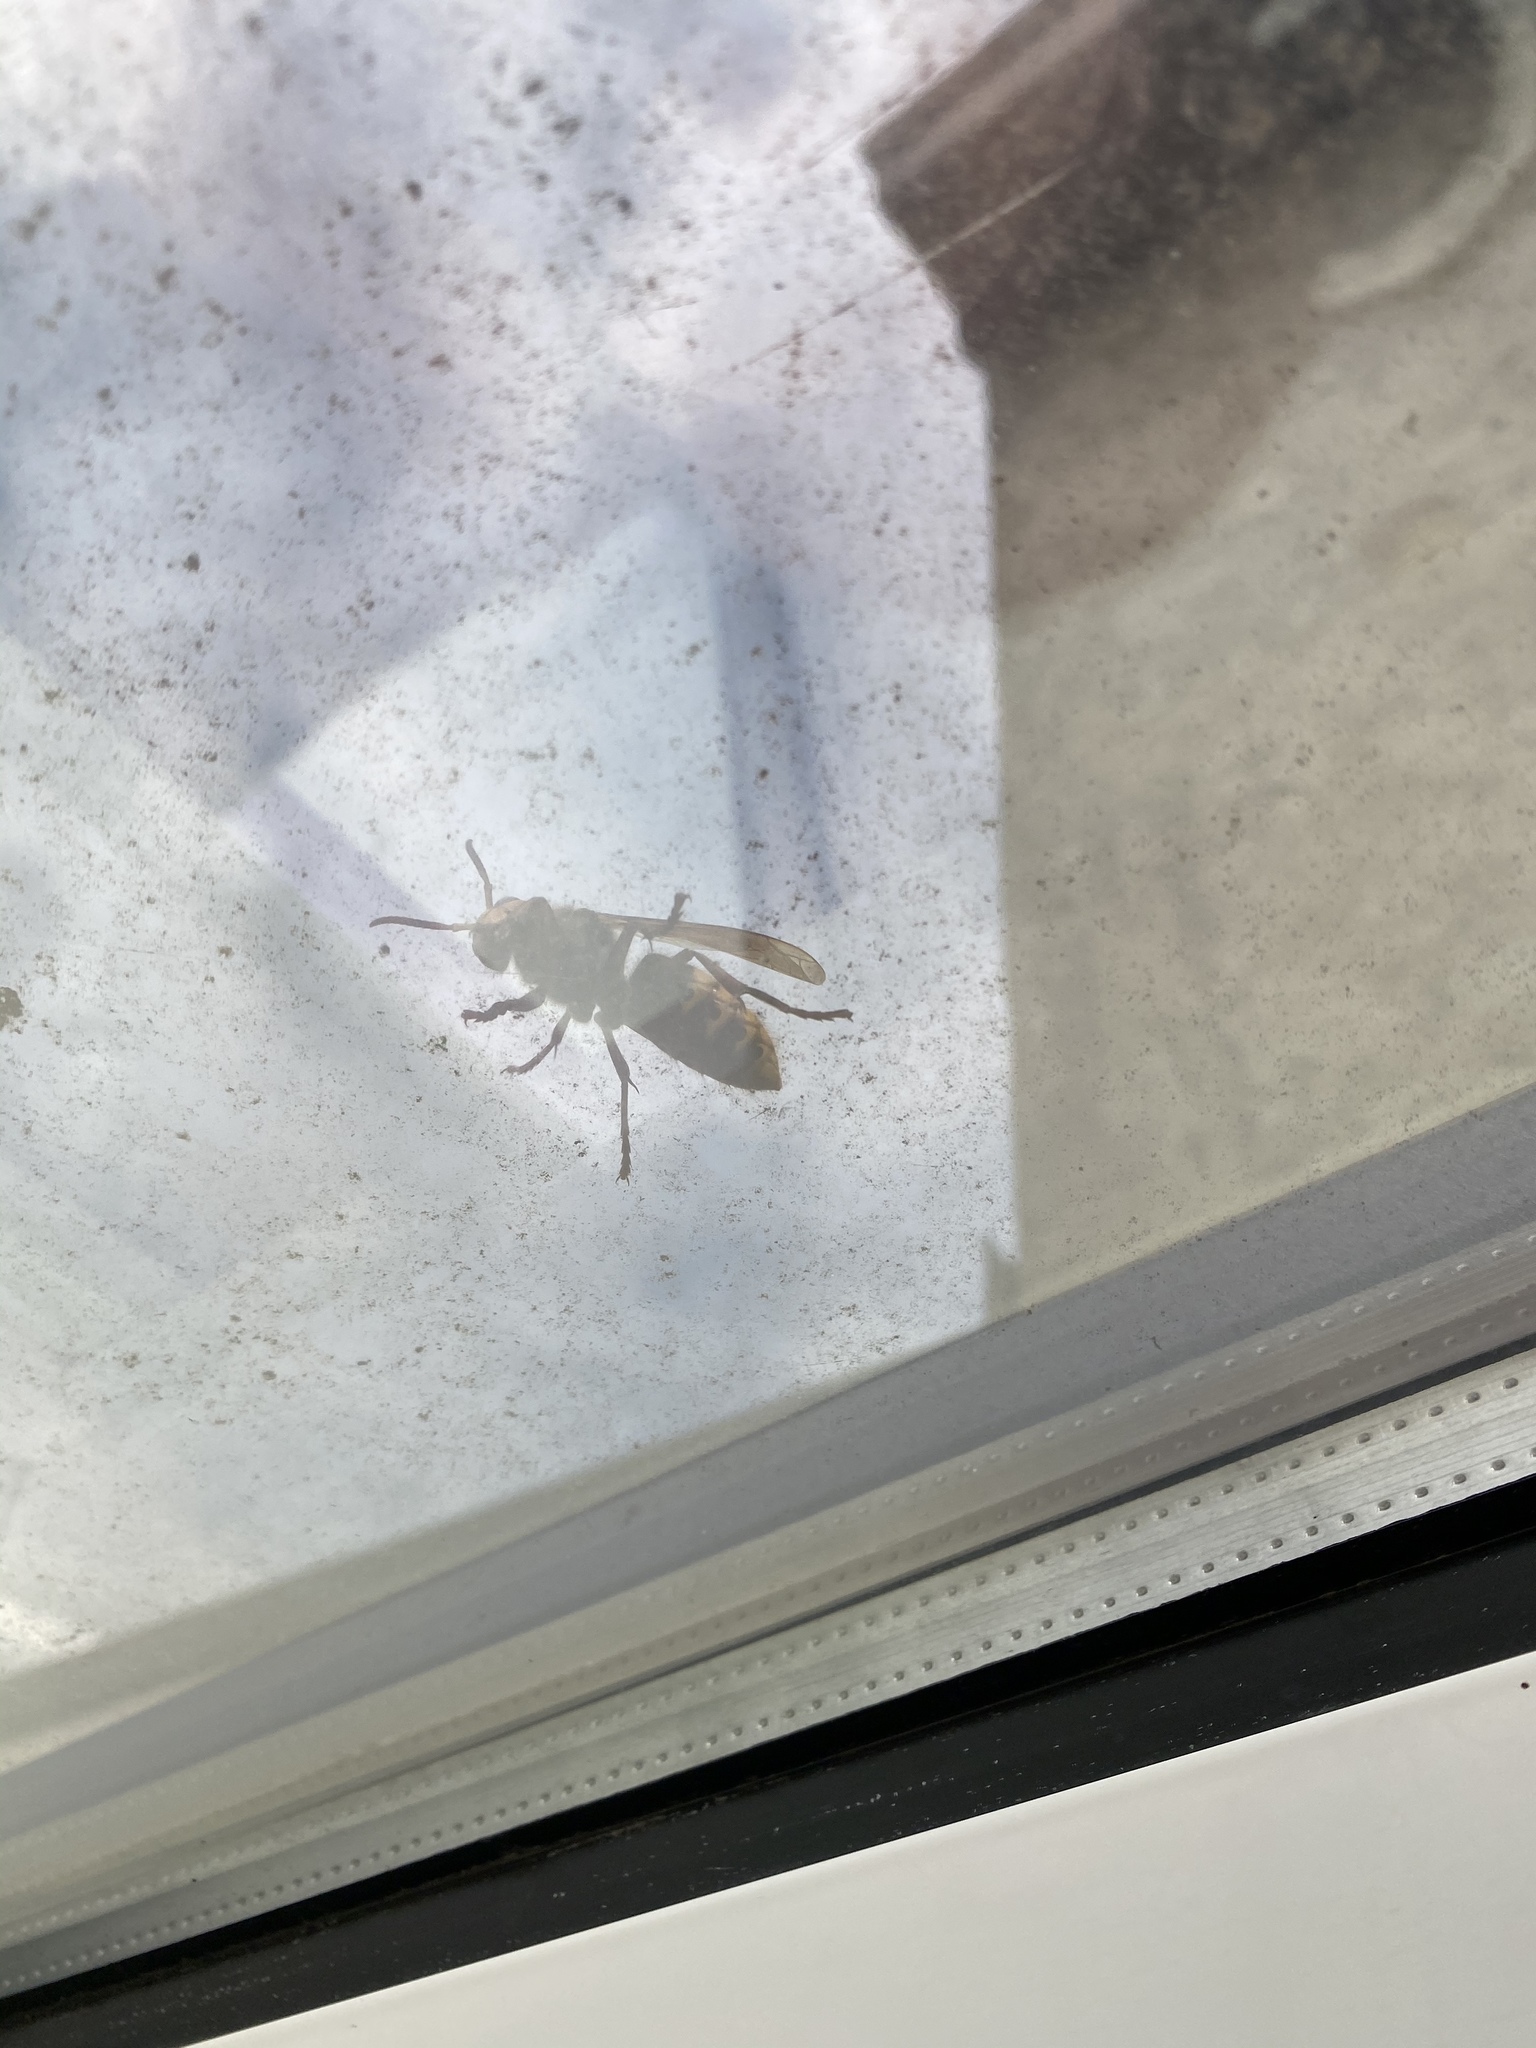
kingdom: Animalia
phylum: Arthropoda
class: Insecta
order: Hymenoptera
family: Vespidae
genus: Vespa
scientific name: Vespa crabro
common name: Hornet
